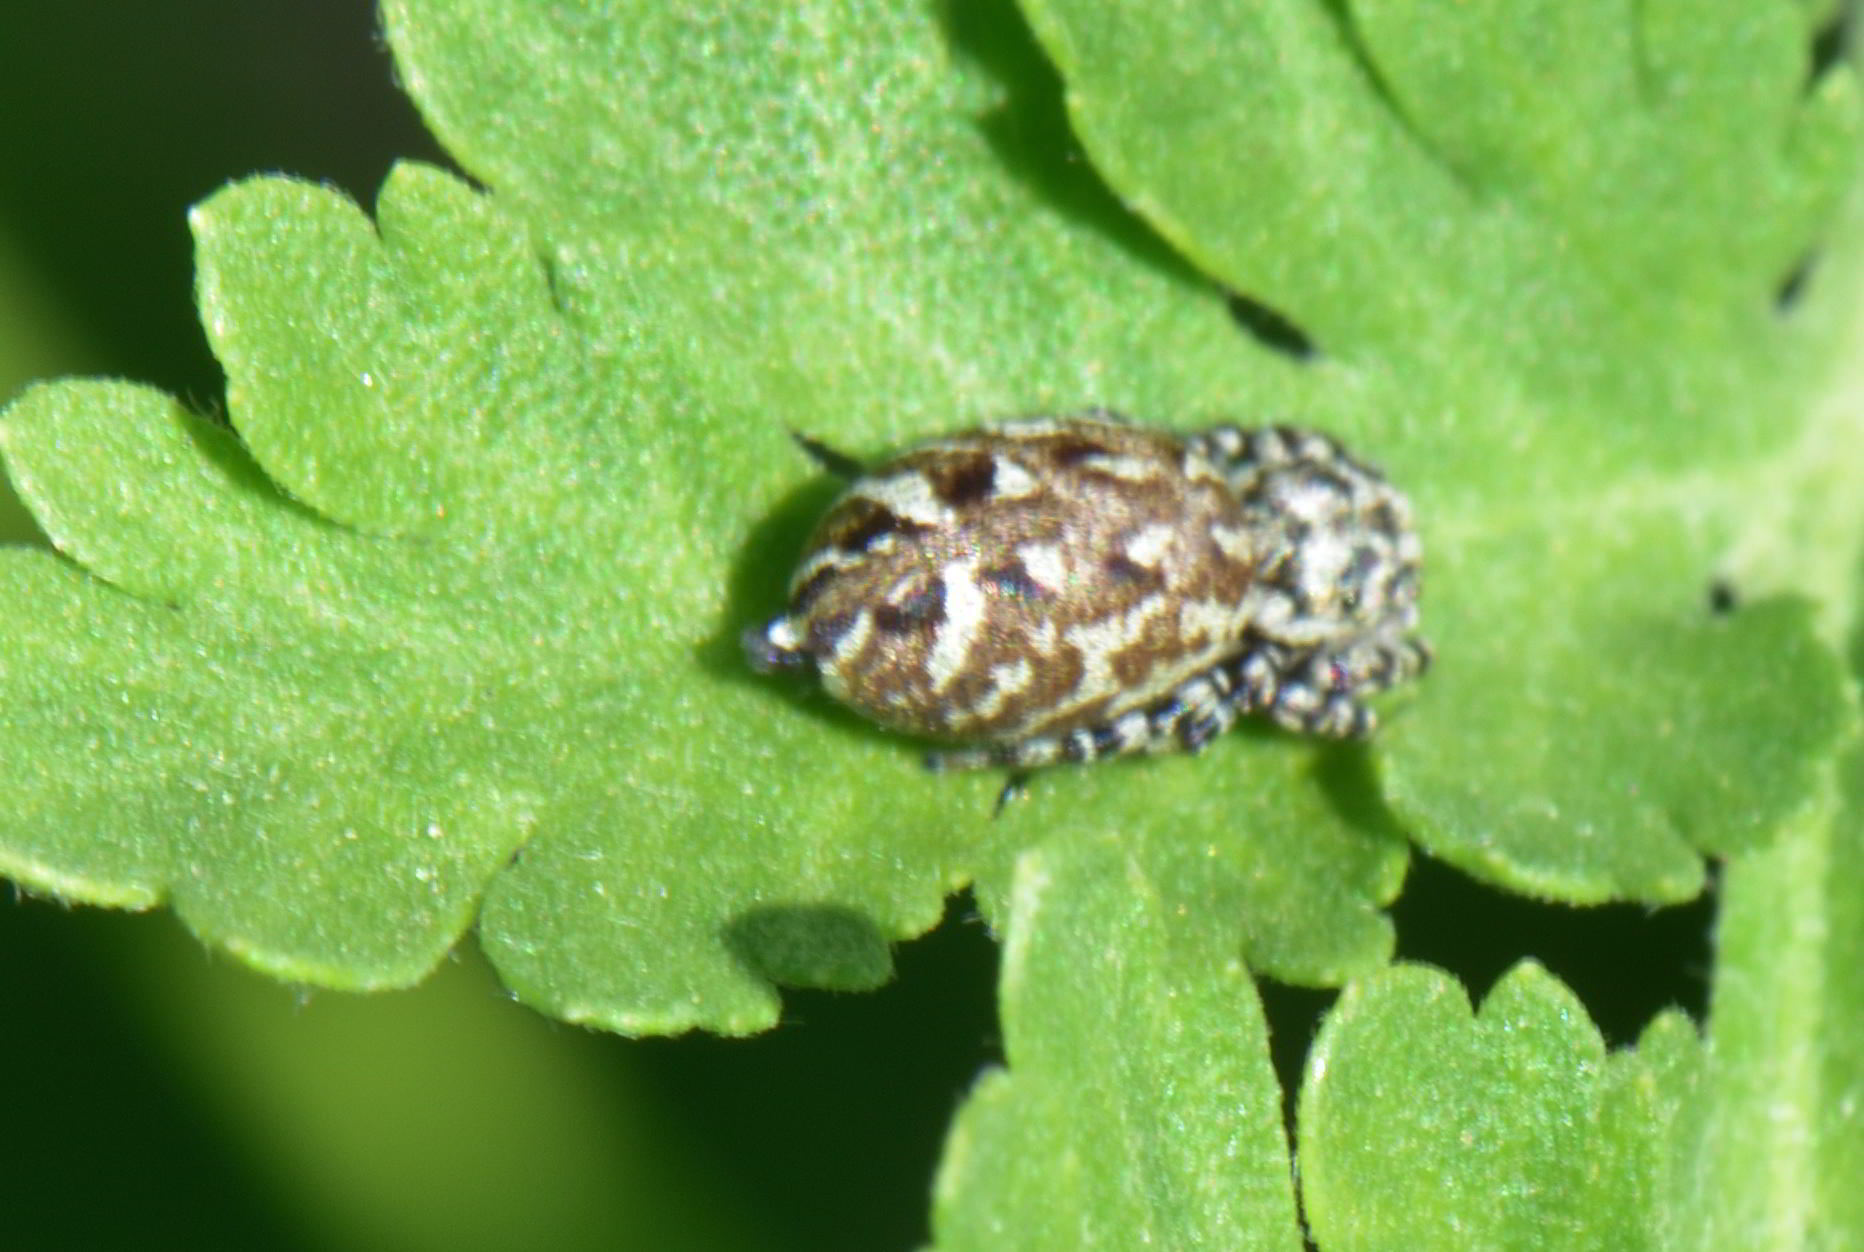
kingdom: Animalia
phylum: Arthropoda
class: Arachnida
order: Araneae
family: Salticidae
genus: Pelegrina
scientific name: Pelegrina galathea
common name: Jumping spiders
